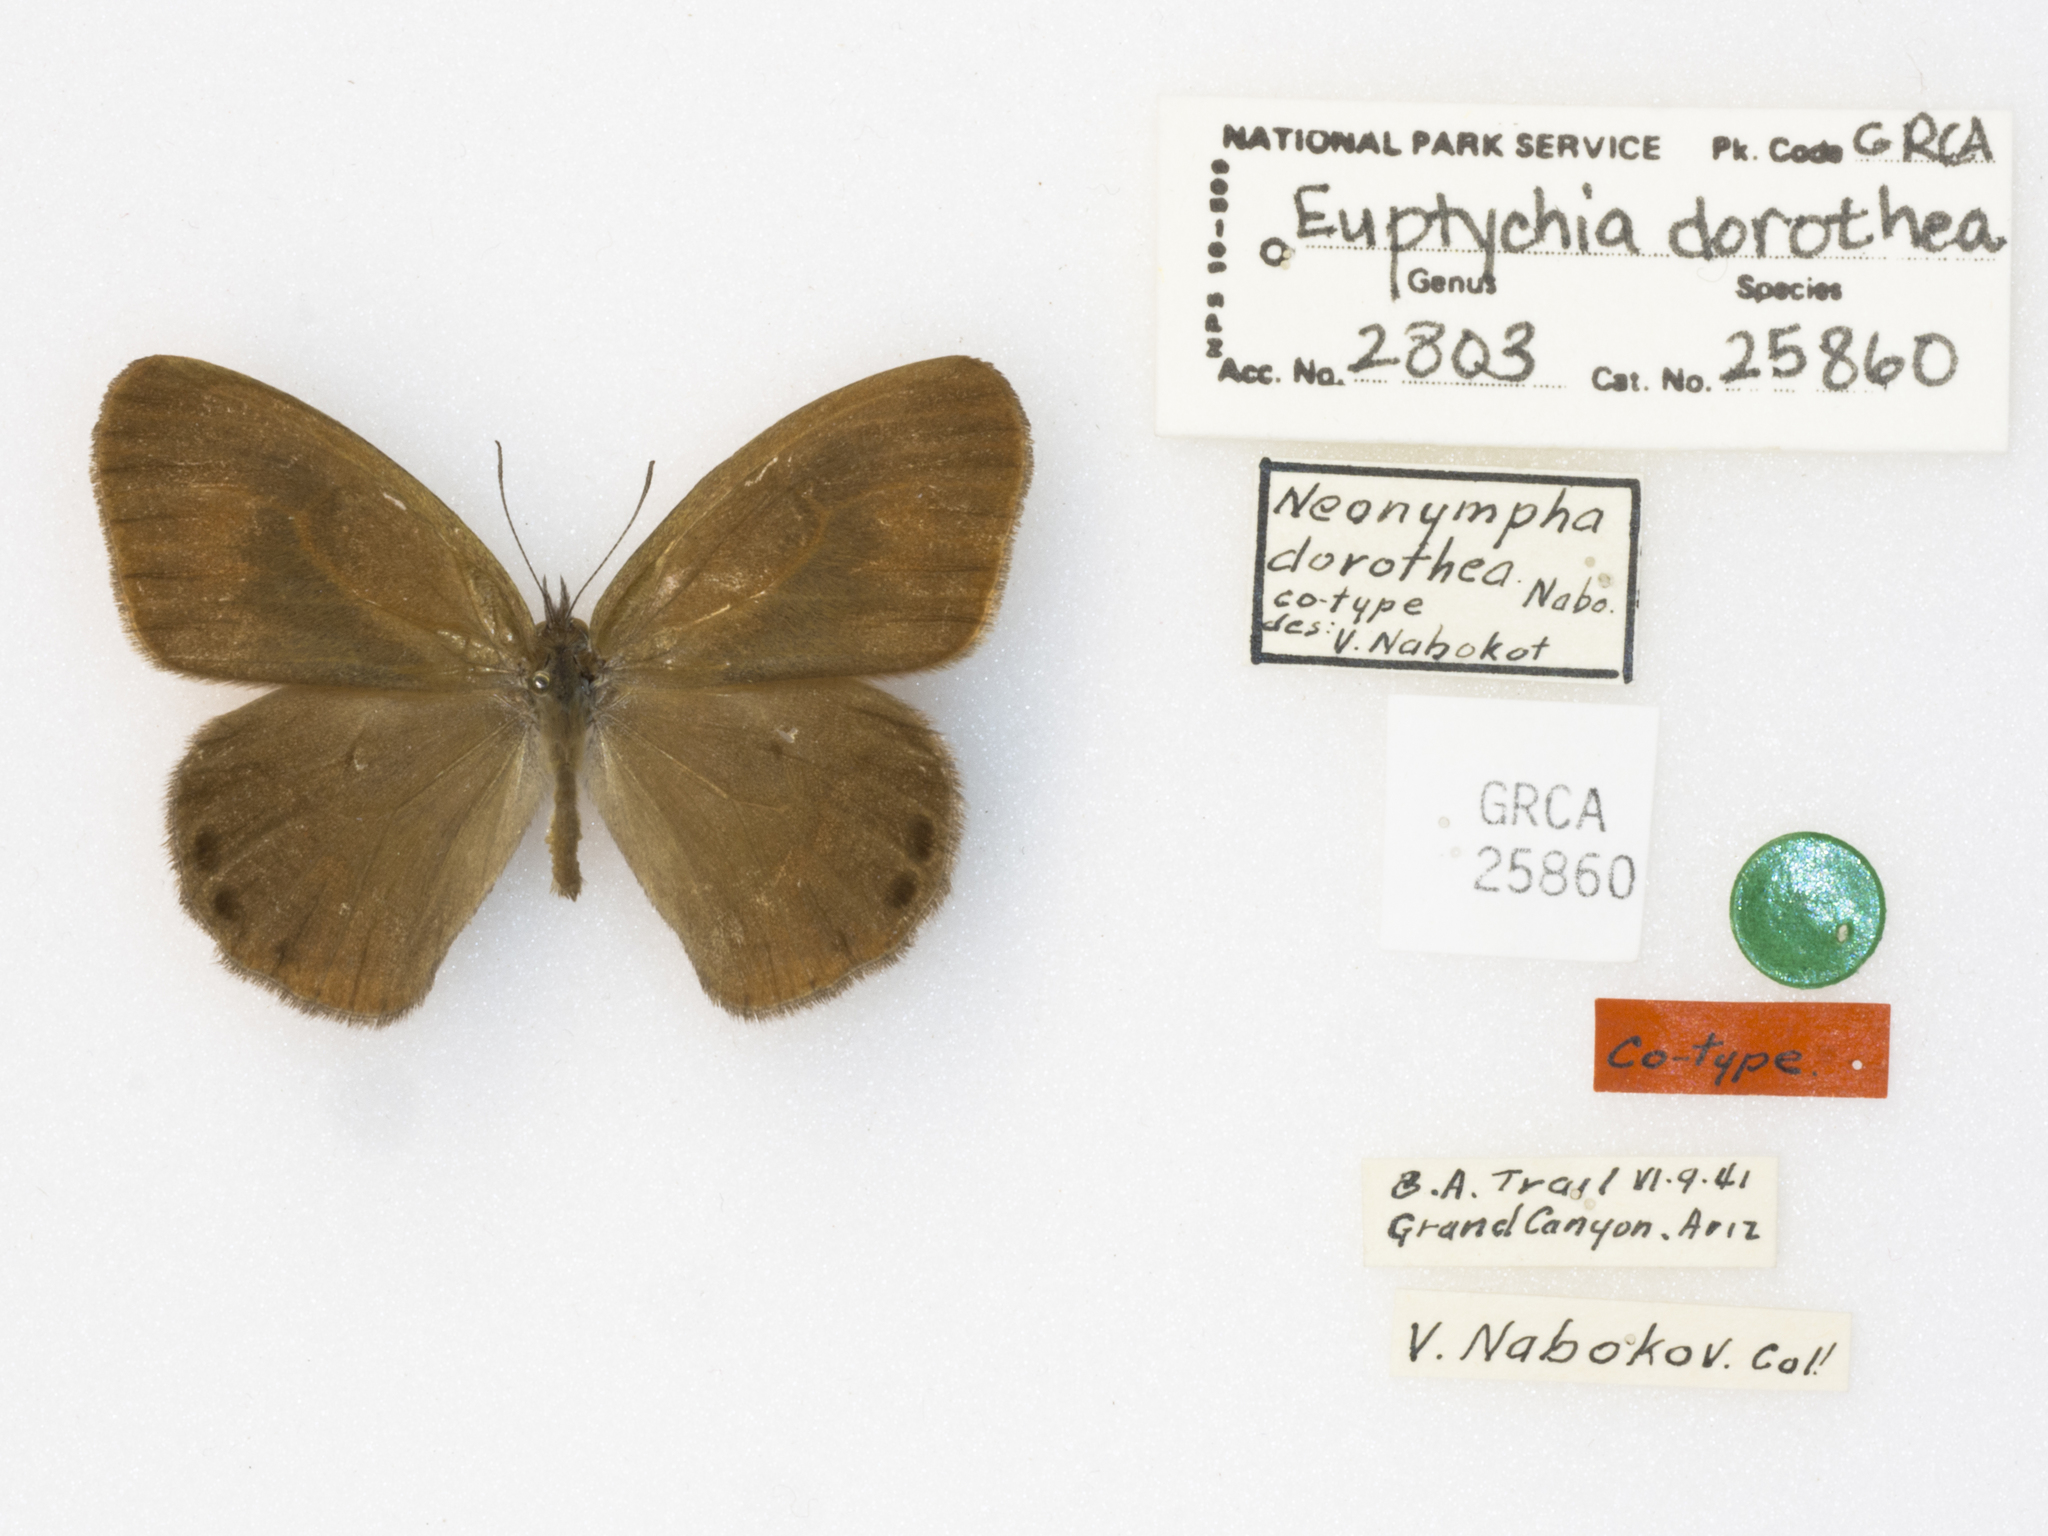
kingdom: Animalia
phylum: Arthropoda
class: Insecta
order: Lepidoptera
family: Nymphalidae
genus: Euptychia
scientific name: Euptychia dorothea
